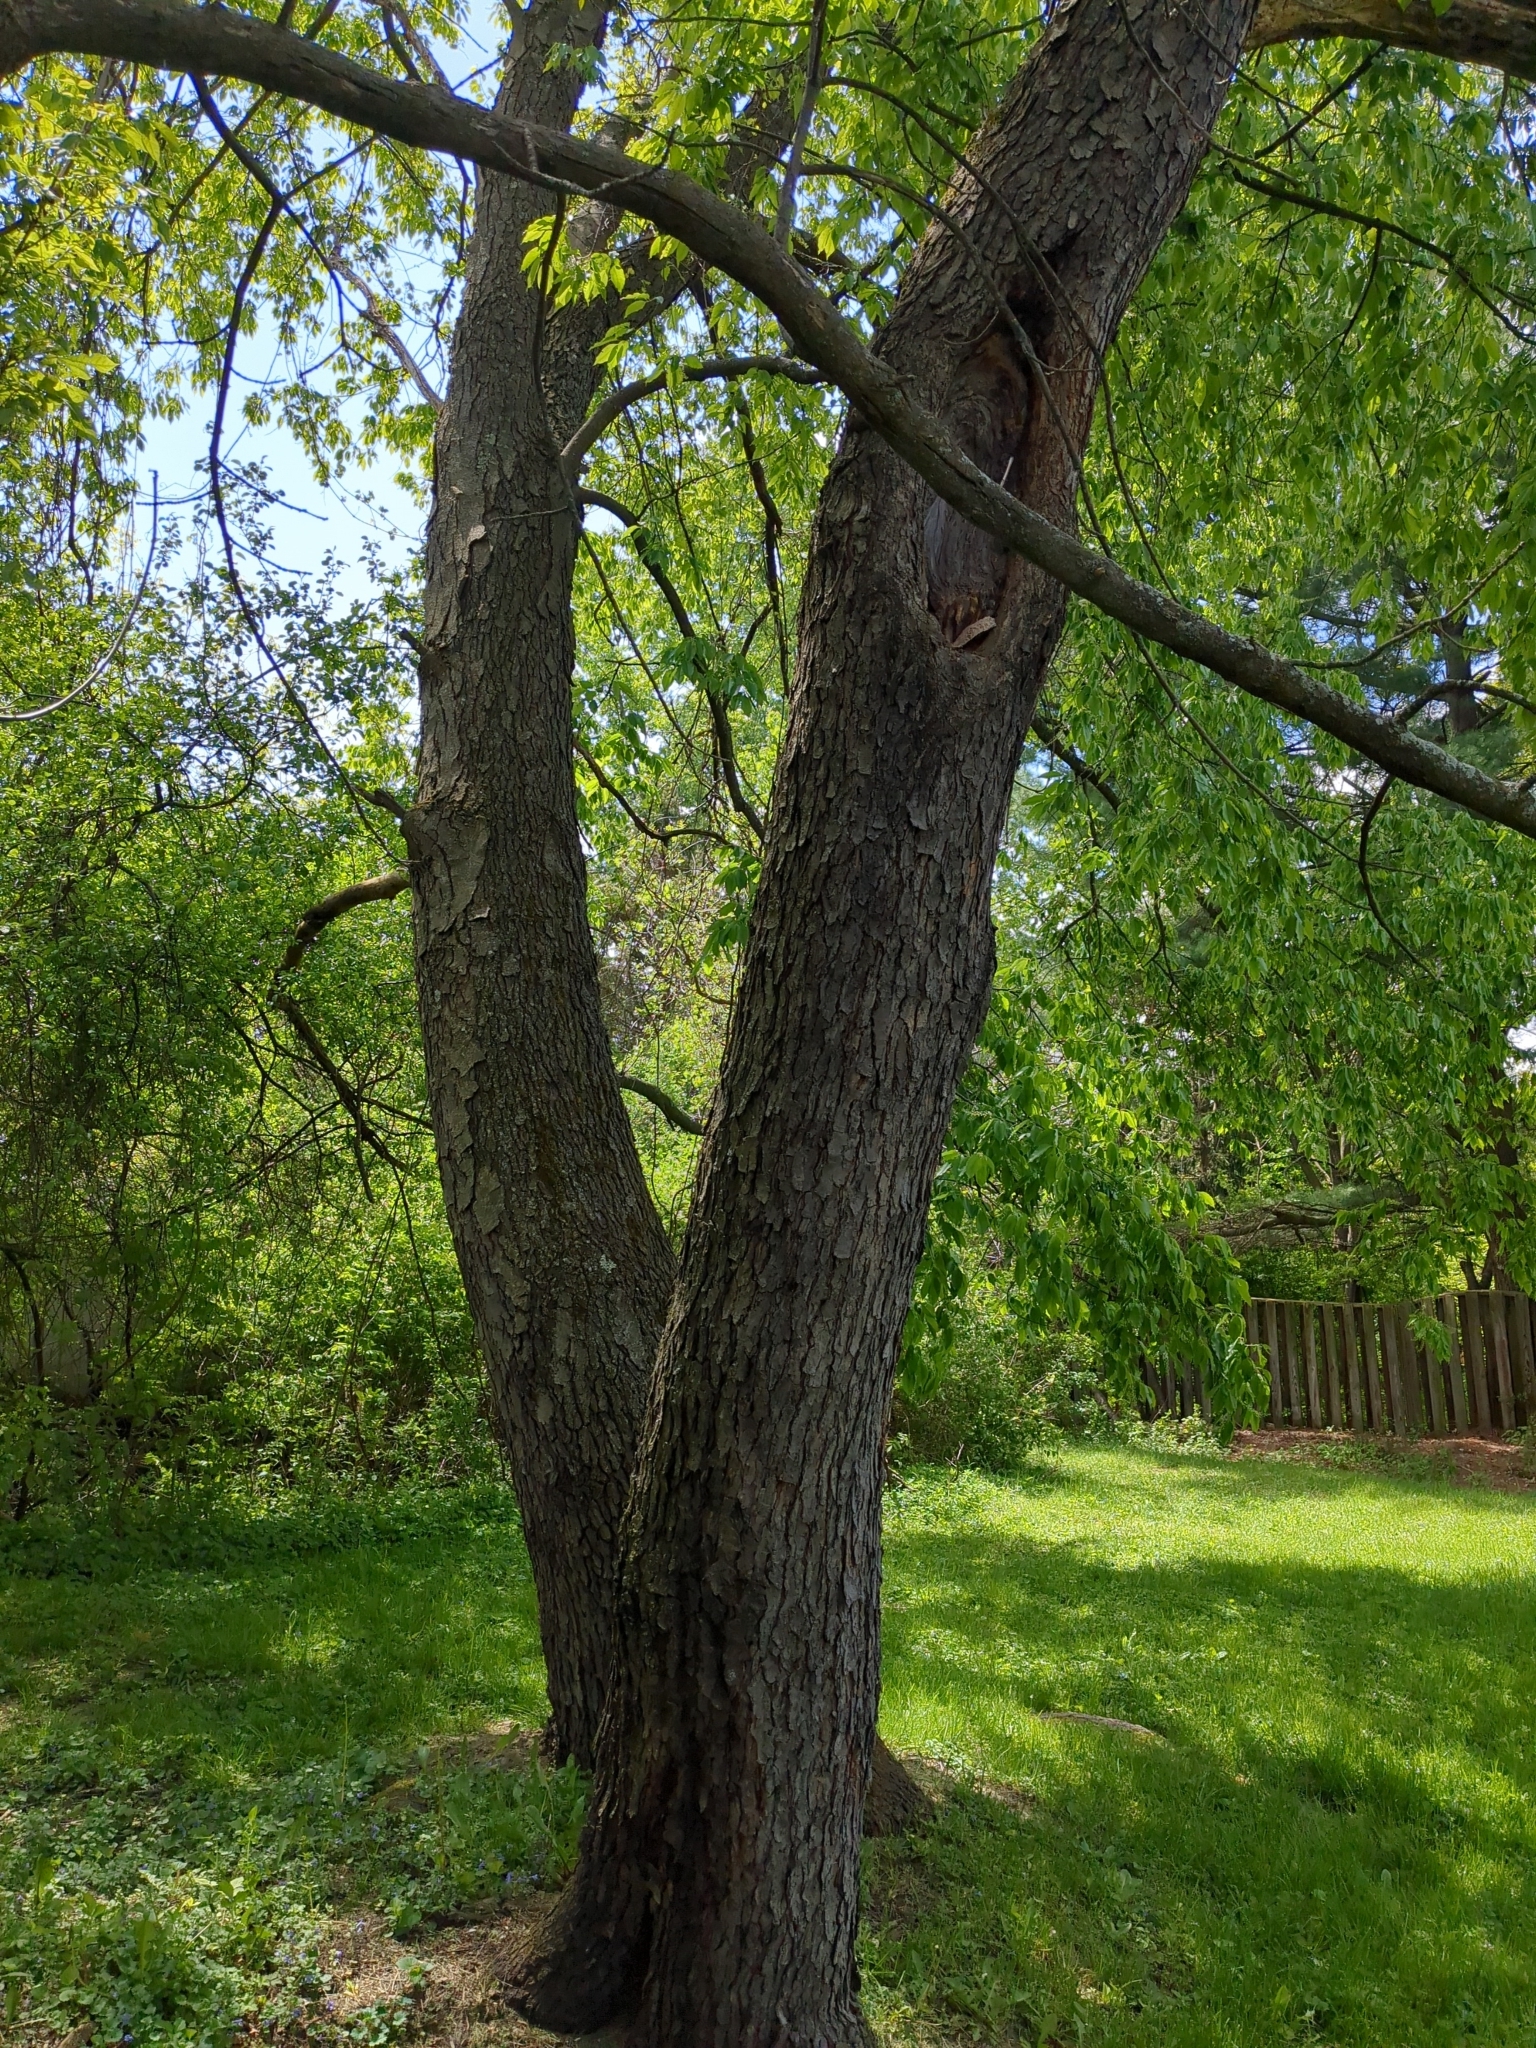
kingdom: Plantae
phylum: Tracheophyta
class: Magnoliopsida
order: Rosales
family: Rosaceae
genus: Prunus
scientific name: Prunus serotina
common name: Black cherry
